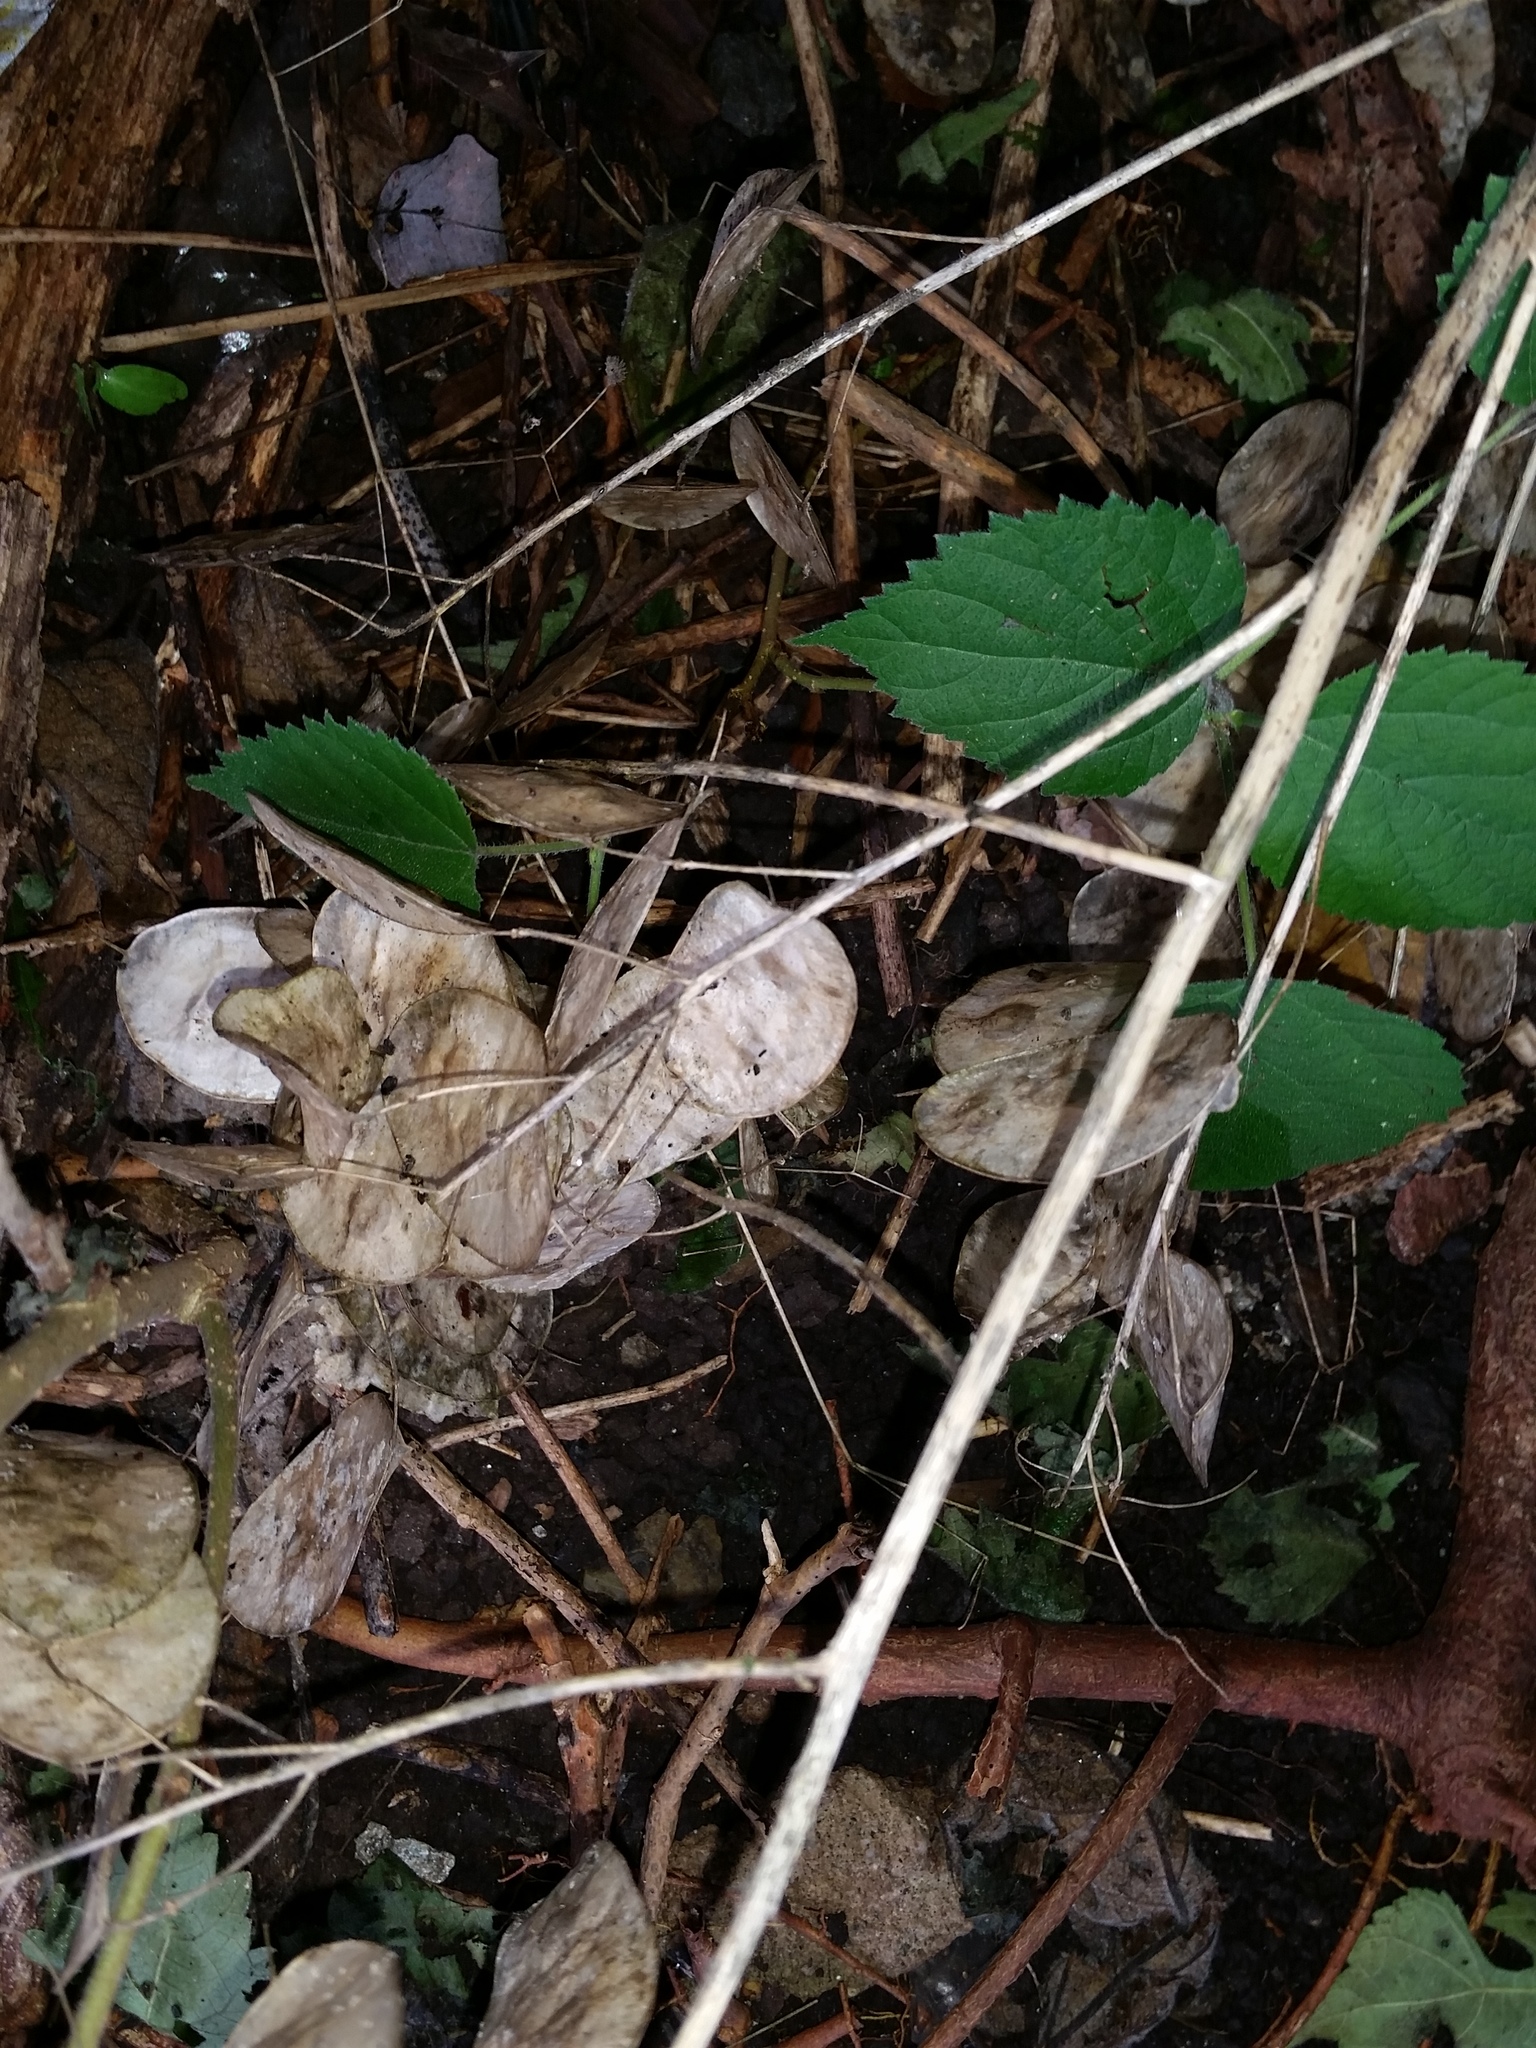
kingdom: Plantae
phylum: Tracheophyta
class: Magnoliopsida
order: Brassicales
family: Brassicaceae
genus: Lunaria
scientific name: Lunaria annua
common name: Honesty
